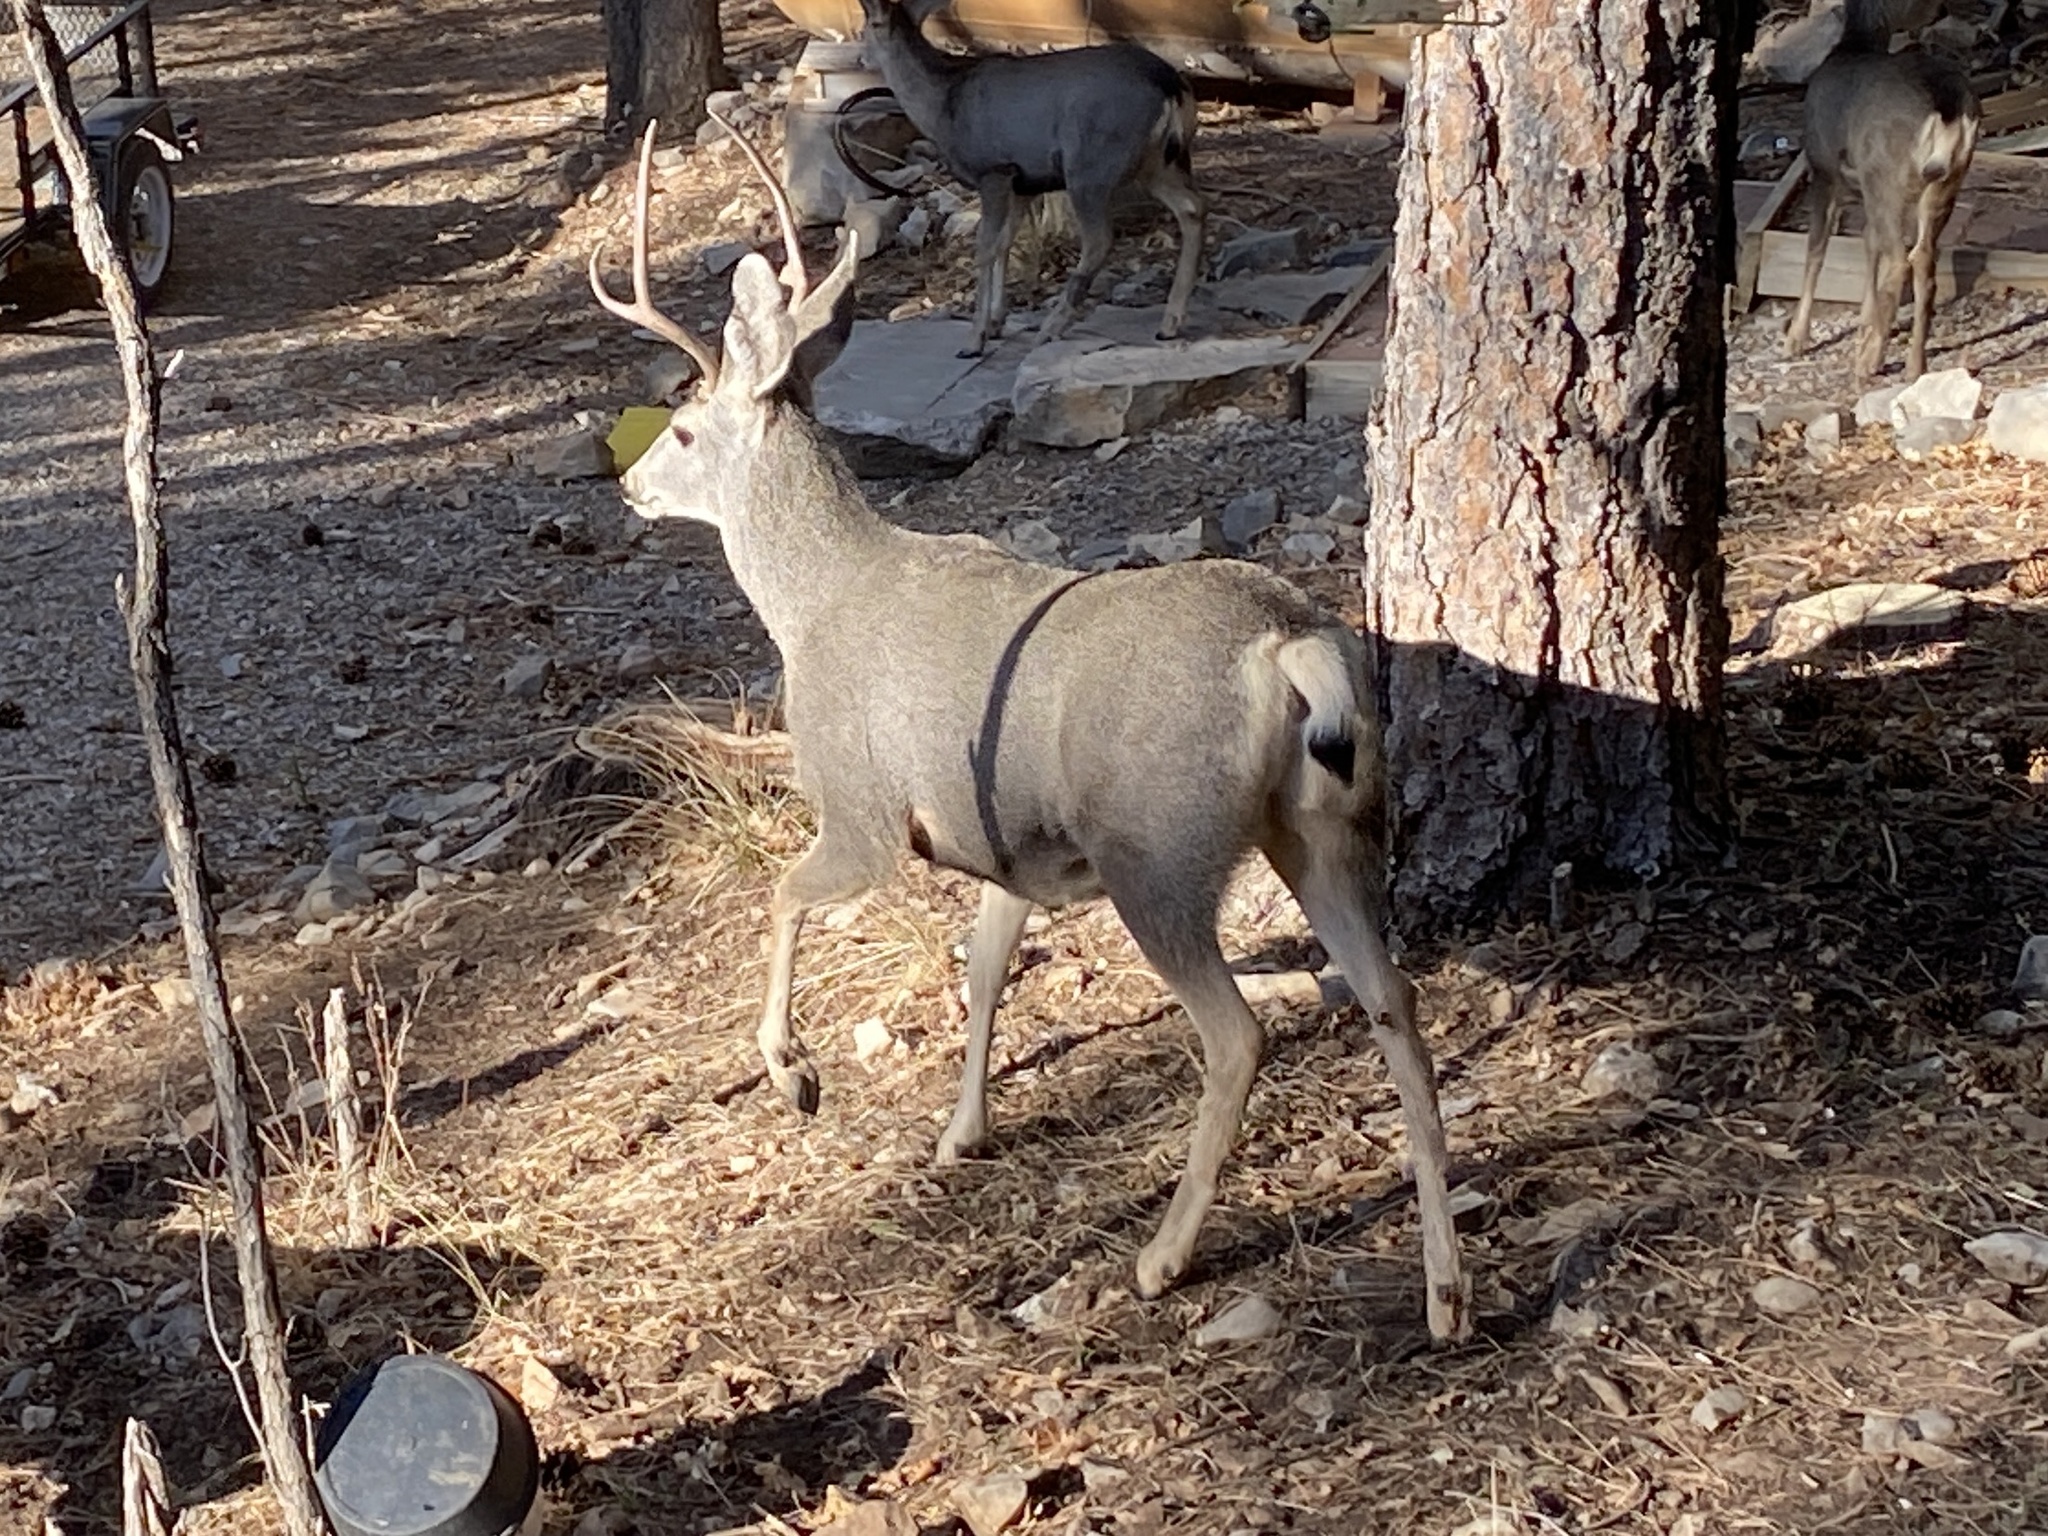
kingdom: Animalia
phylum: Chordata
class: Mammalia
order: Artiodactyla
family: Cervidae
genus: Odocoileus
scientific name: Odocoileus hemionus
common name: Mule deer
